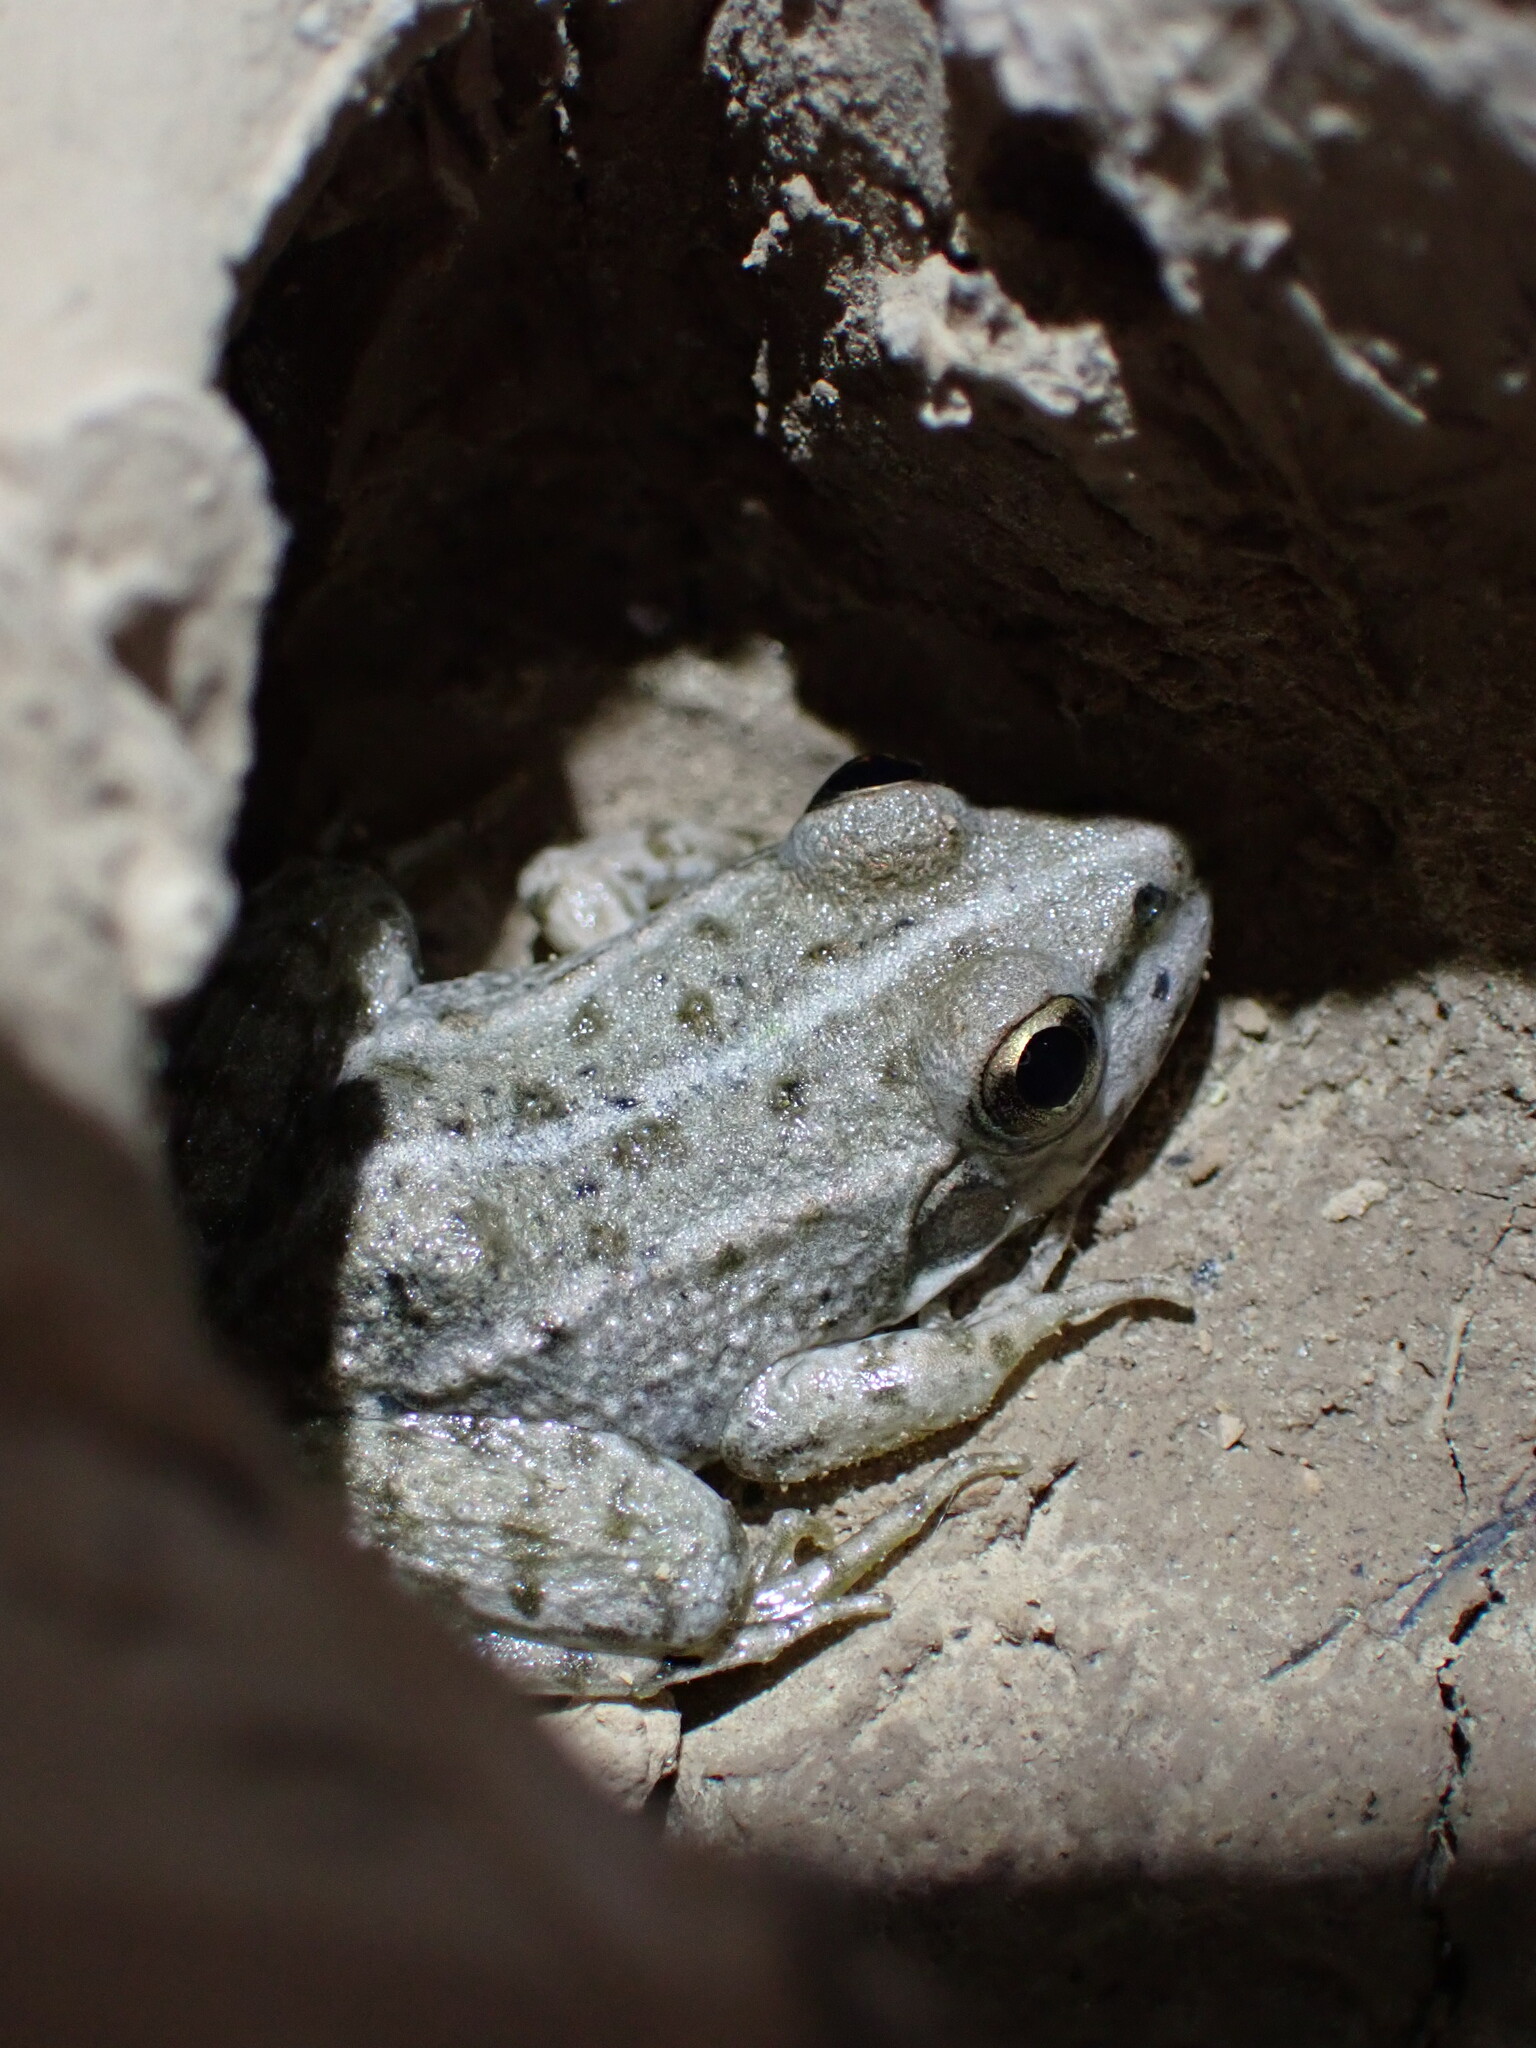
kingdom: Animalia
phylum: Chordata
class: Amphibia
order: Anura
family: Ranidae
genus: Pelophylax
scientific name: Pelophylax
